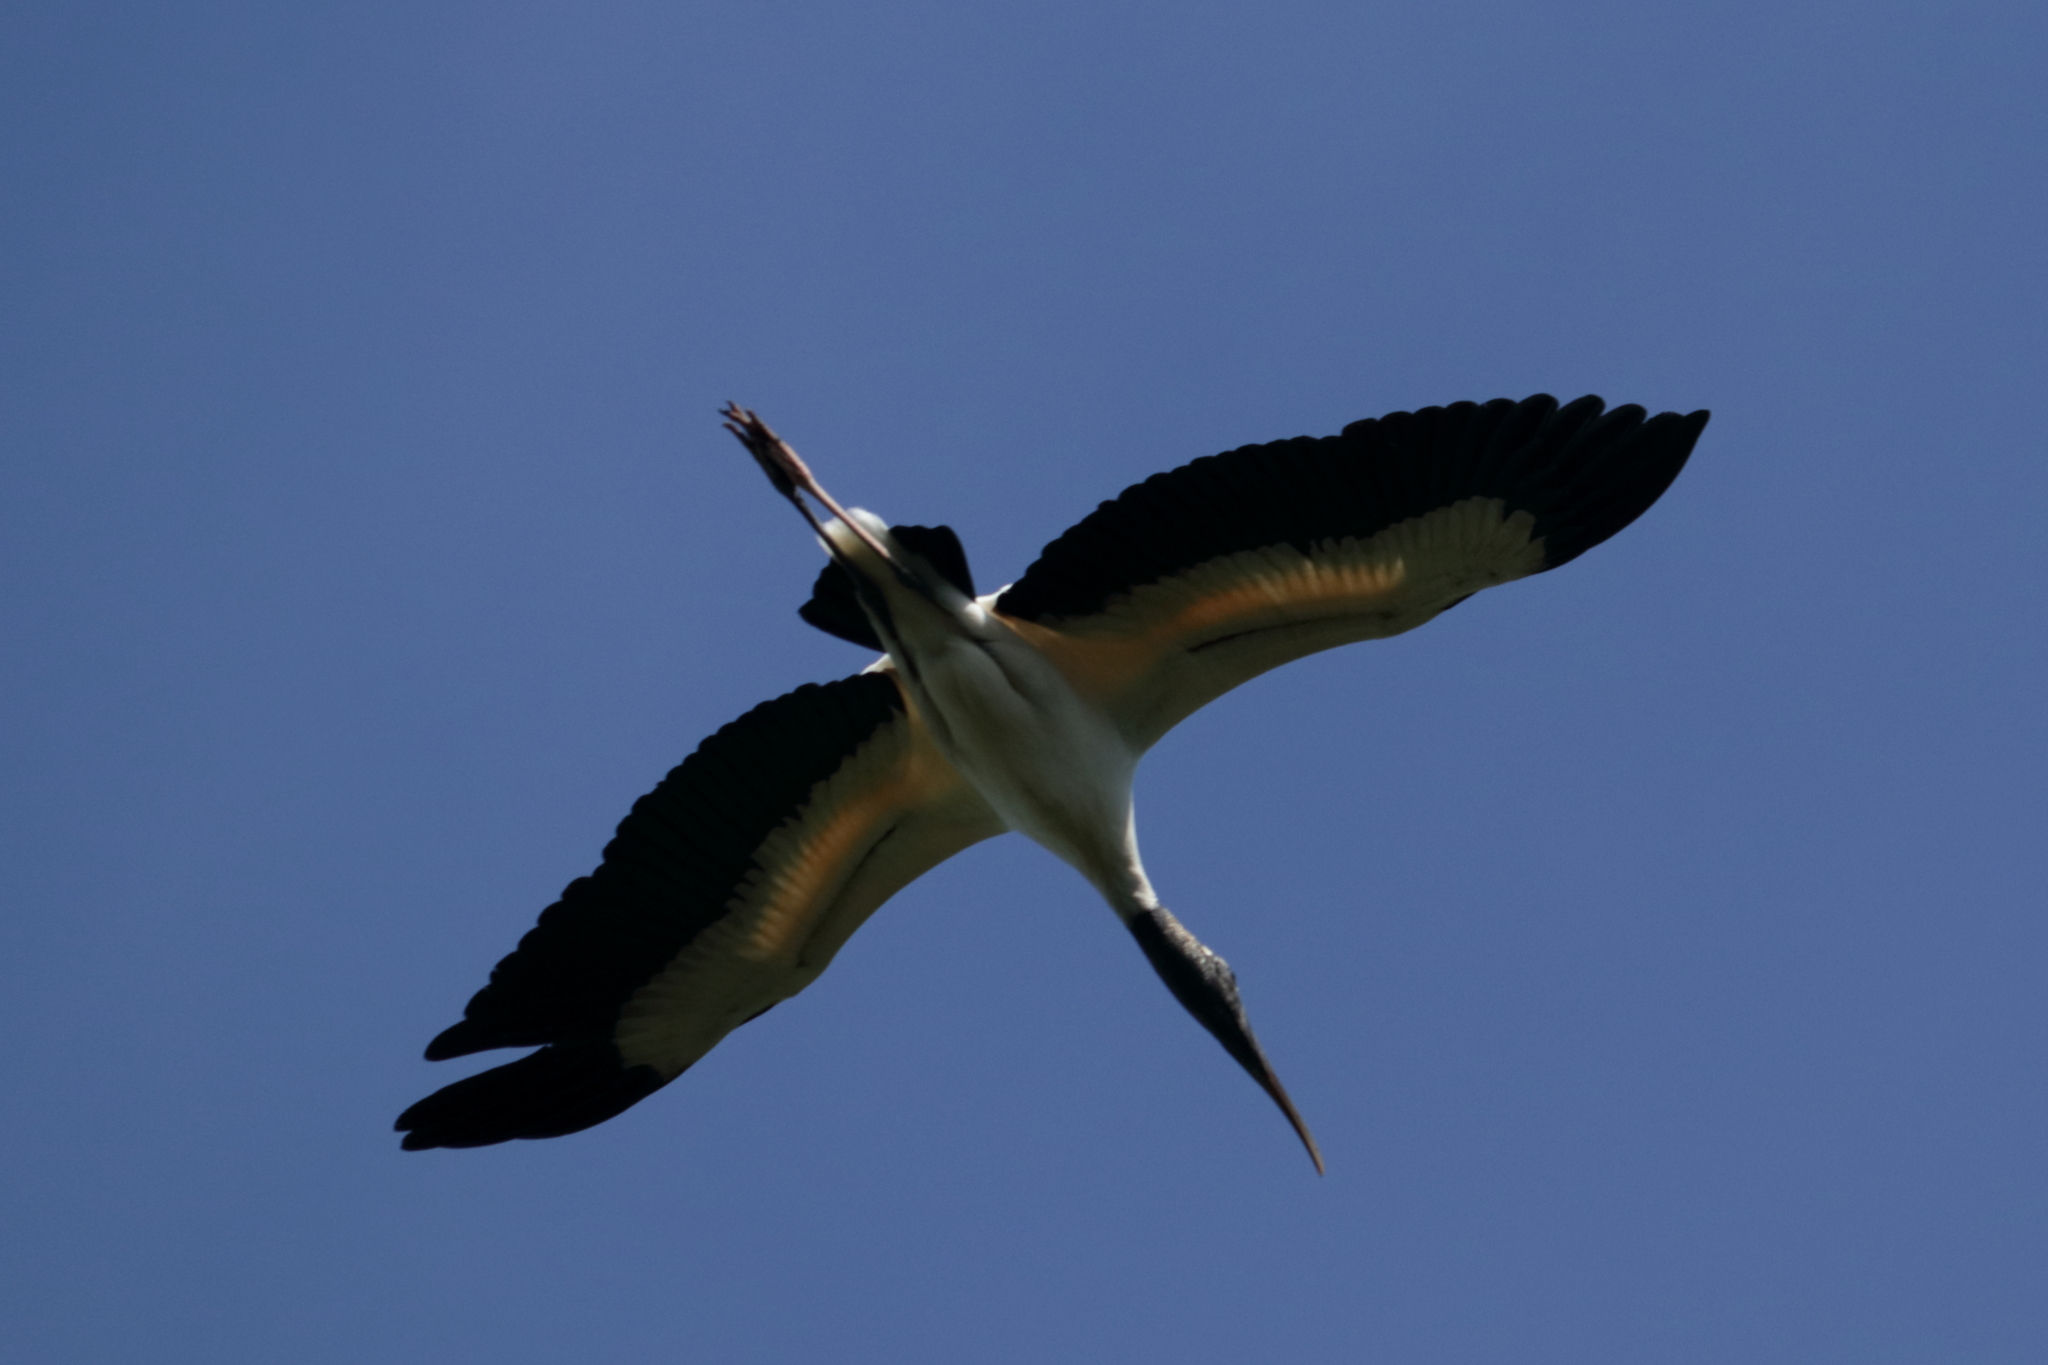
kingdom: Animalia
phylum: Chordata
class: Aves
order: Ciconiiformes
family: Ciconiidae
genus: Mycteria
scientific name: Mycteria americana
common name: Wood stork
